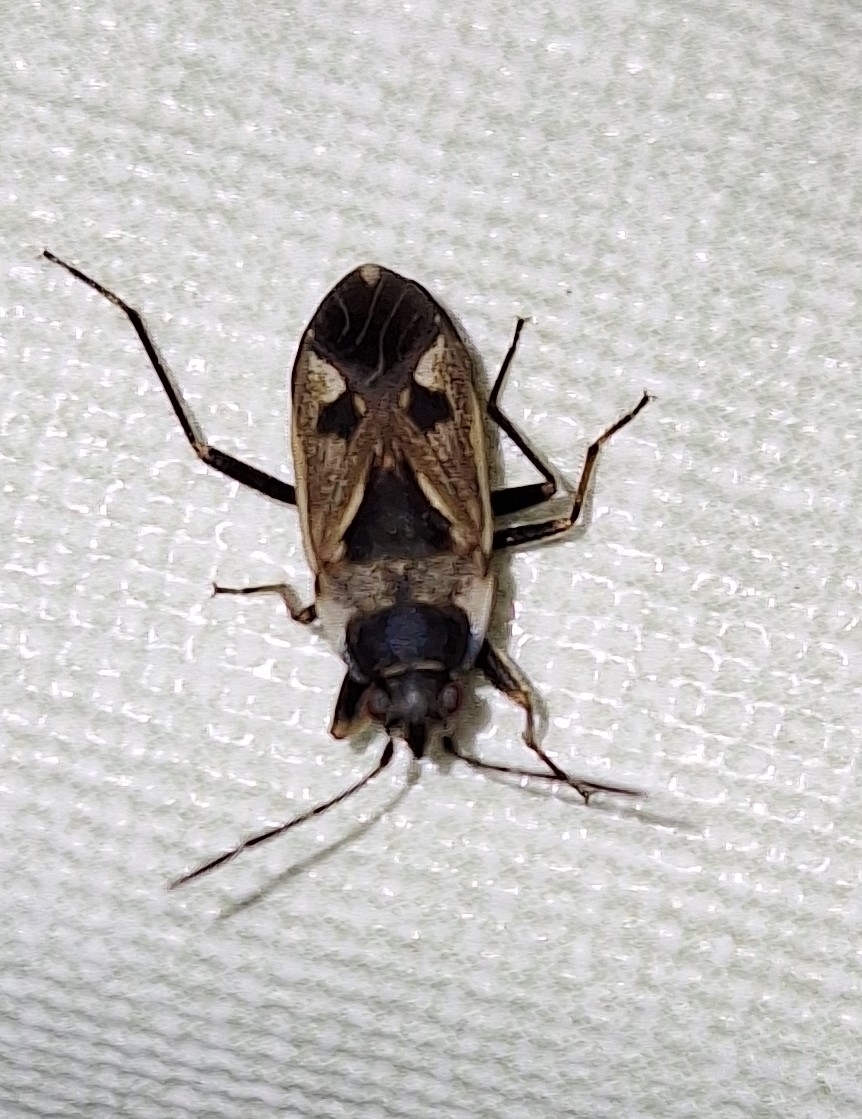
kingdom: Animalia
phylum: Arthropoda
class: Insecta
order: Hemiptera
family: Rhyparochromidae
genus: Rhyparochromus
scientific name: Rhyparochromus vulgaris
